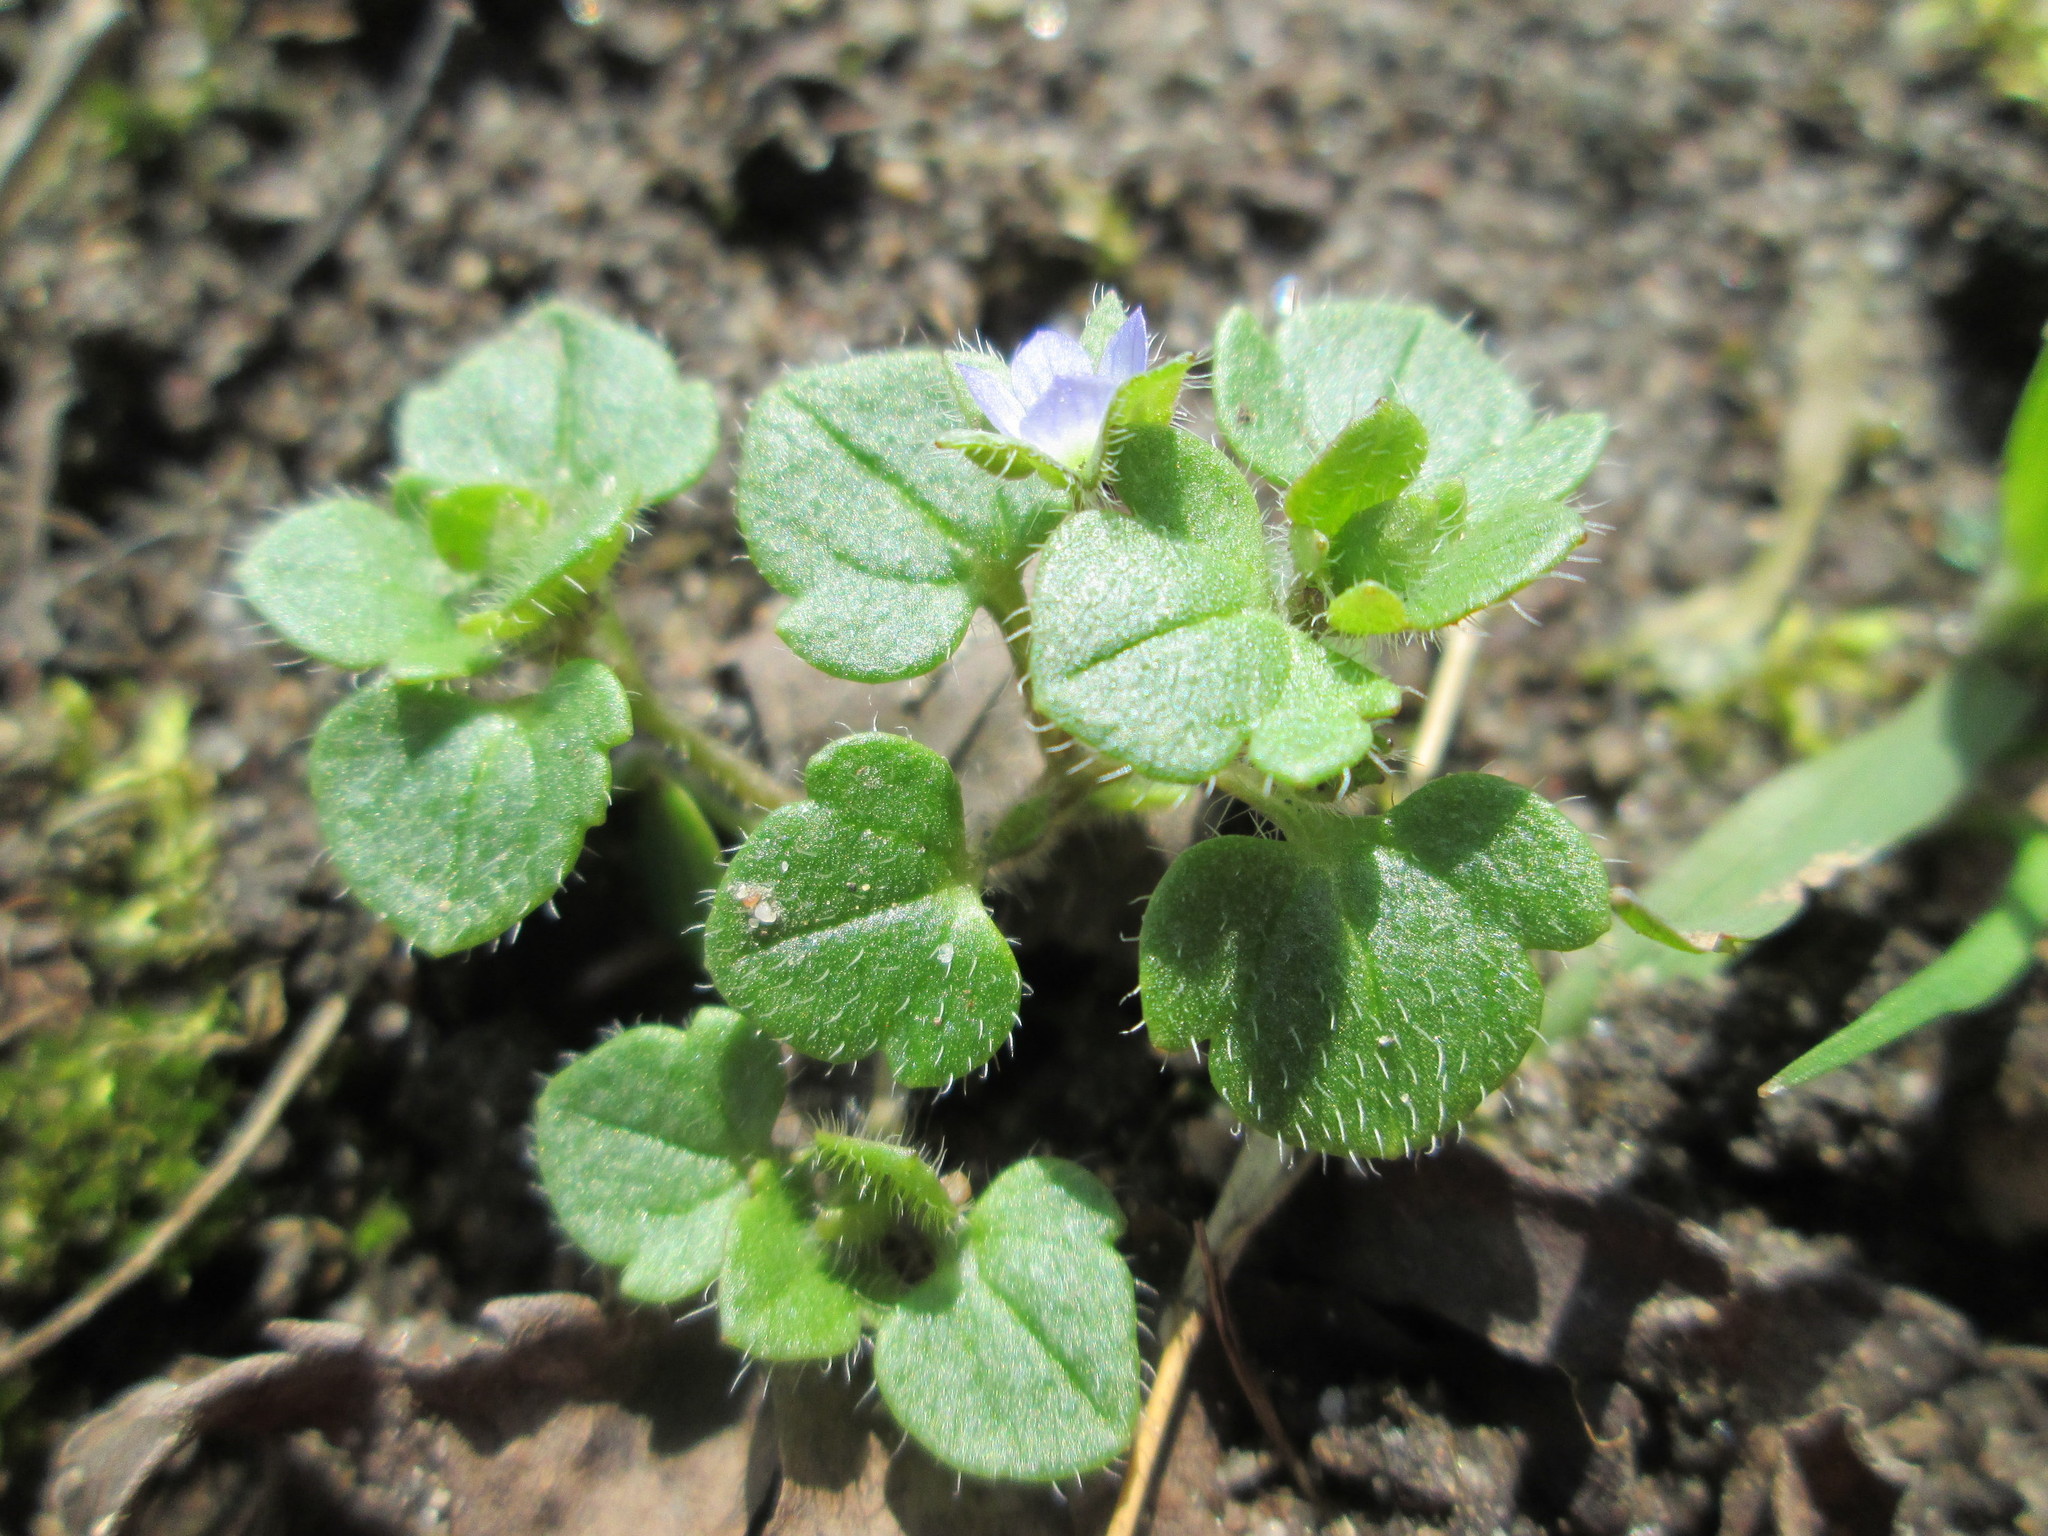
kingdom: Plantae
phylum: Tracheophyta
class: Magnoliopsida
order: Lamiales
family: Plantaginaceae
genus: Veronica
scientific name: Veronica hederifolia
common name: Ivy-leaved speedwell
